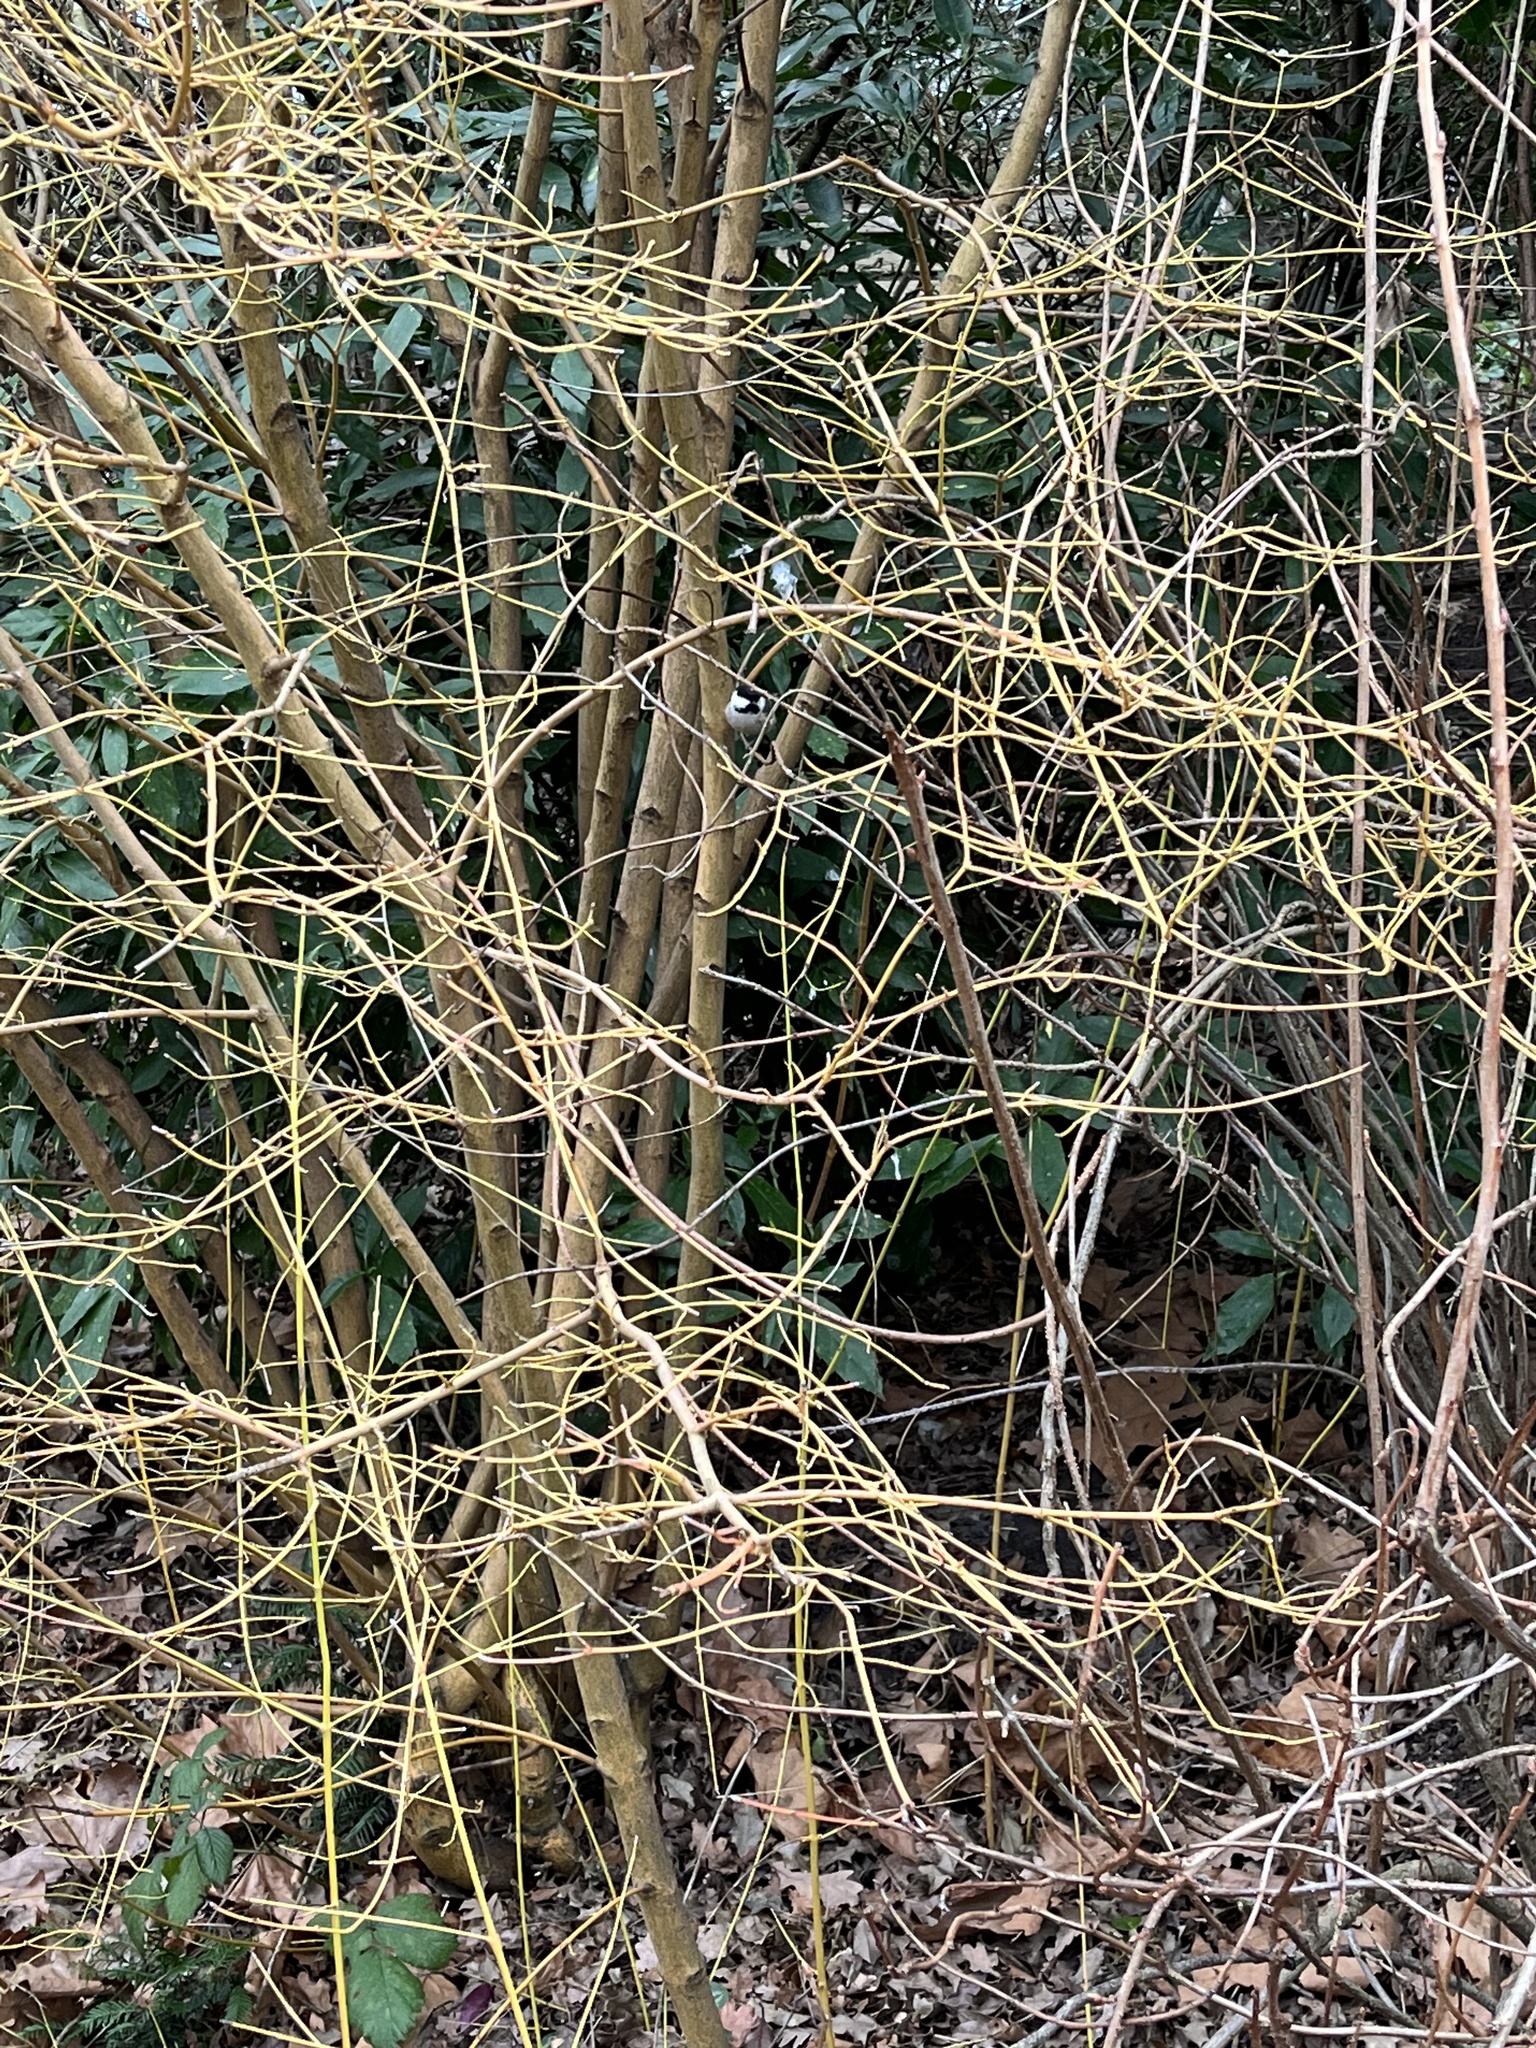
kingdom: Animalia
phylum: Chordata
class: Aves
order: Passeriformes
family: Paridae
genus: Periparus
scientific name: Periparus ater
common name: Coal tit
